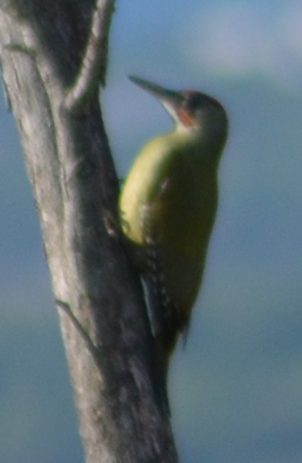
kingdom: Animalia
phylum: Chordata
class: Aves
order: Piciformes
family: Picidae
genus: Picus
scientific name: Picus sharpei
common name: Iberian green woodpecker
